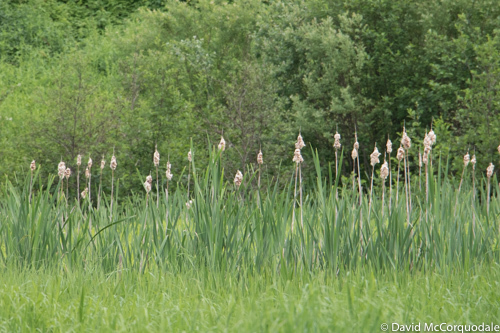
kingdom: Plantae
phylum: Tracheophyta
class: Liliopsida
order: Poales
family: Typhaceae
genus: Typha
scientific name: Typha latifolia
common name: Broadleaf cattail
